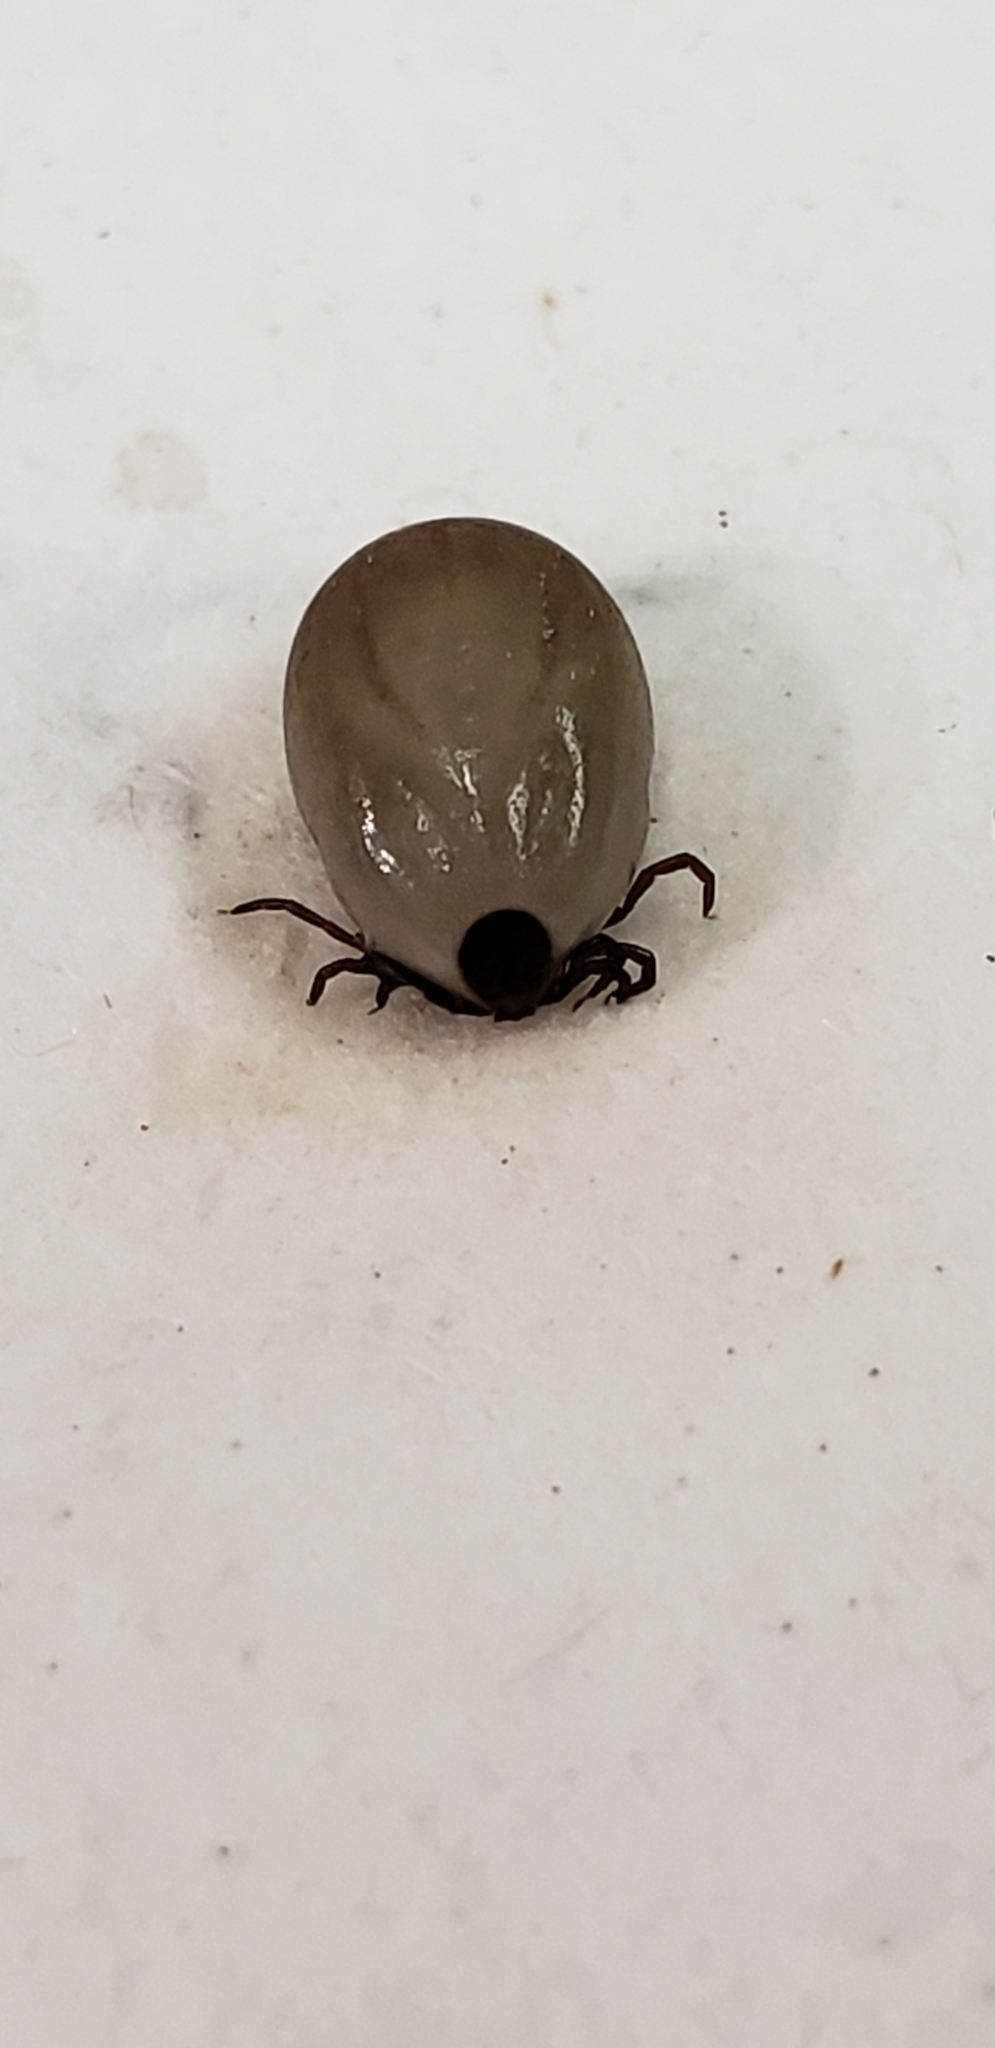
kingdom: Animalia
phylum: Arthropoda
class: Arachnida
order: Ixodida
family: Ixodidae
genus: Ixodes
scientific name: Ixodes scapularis
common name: Black legged tick
